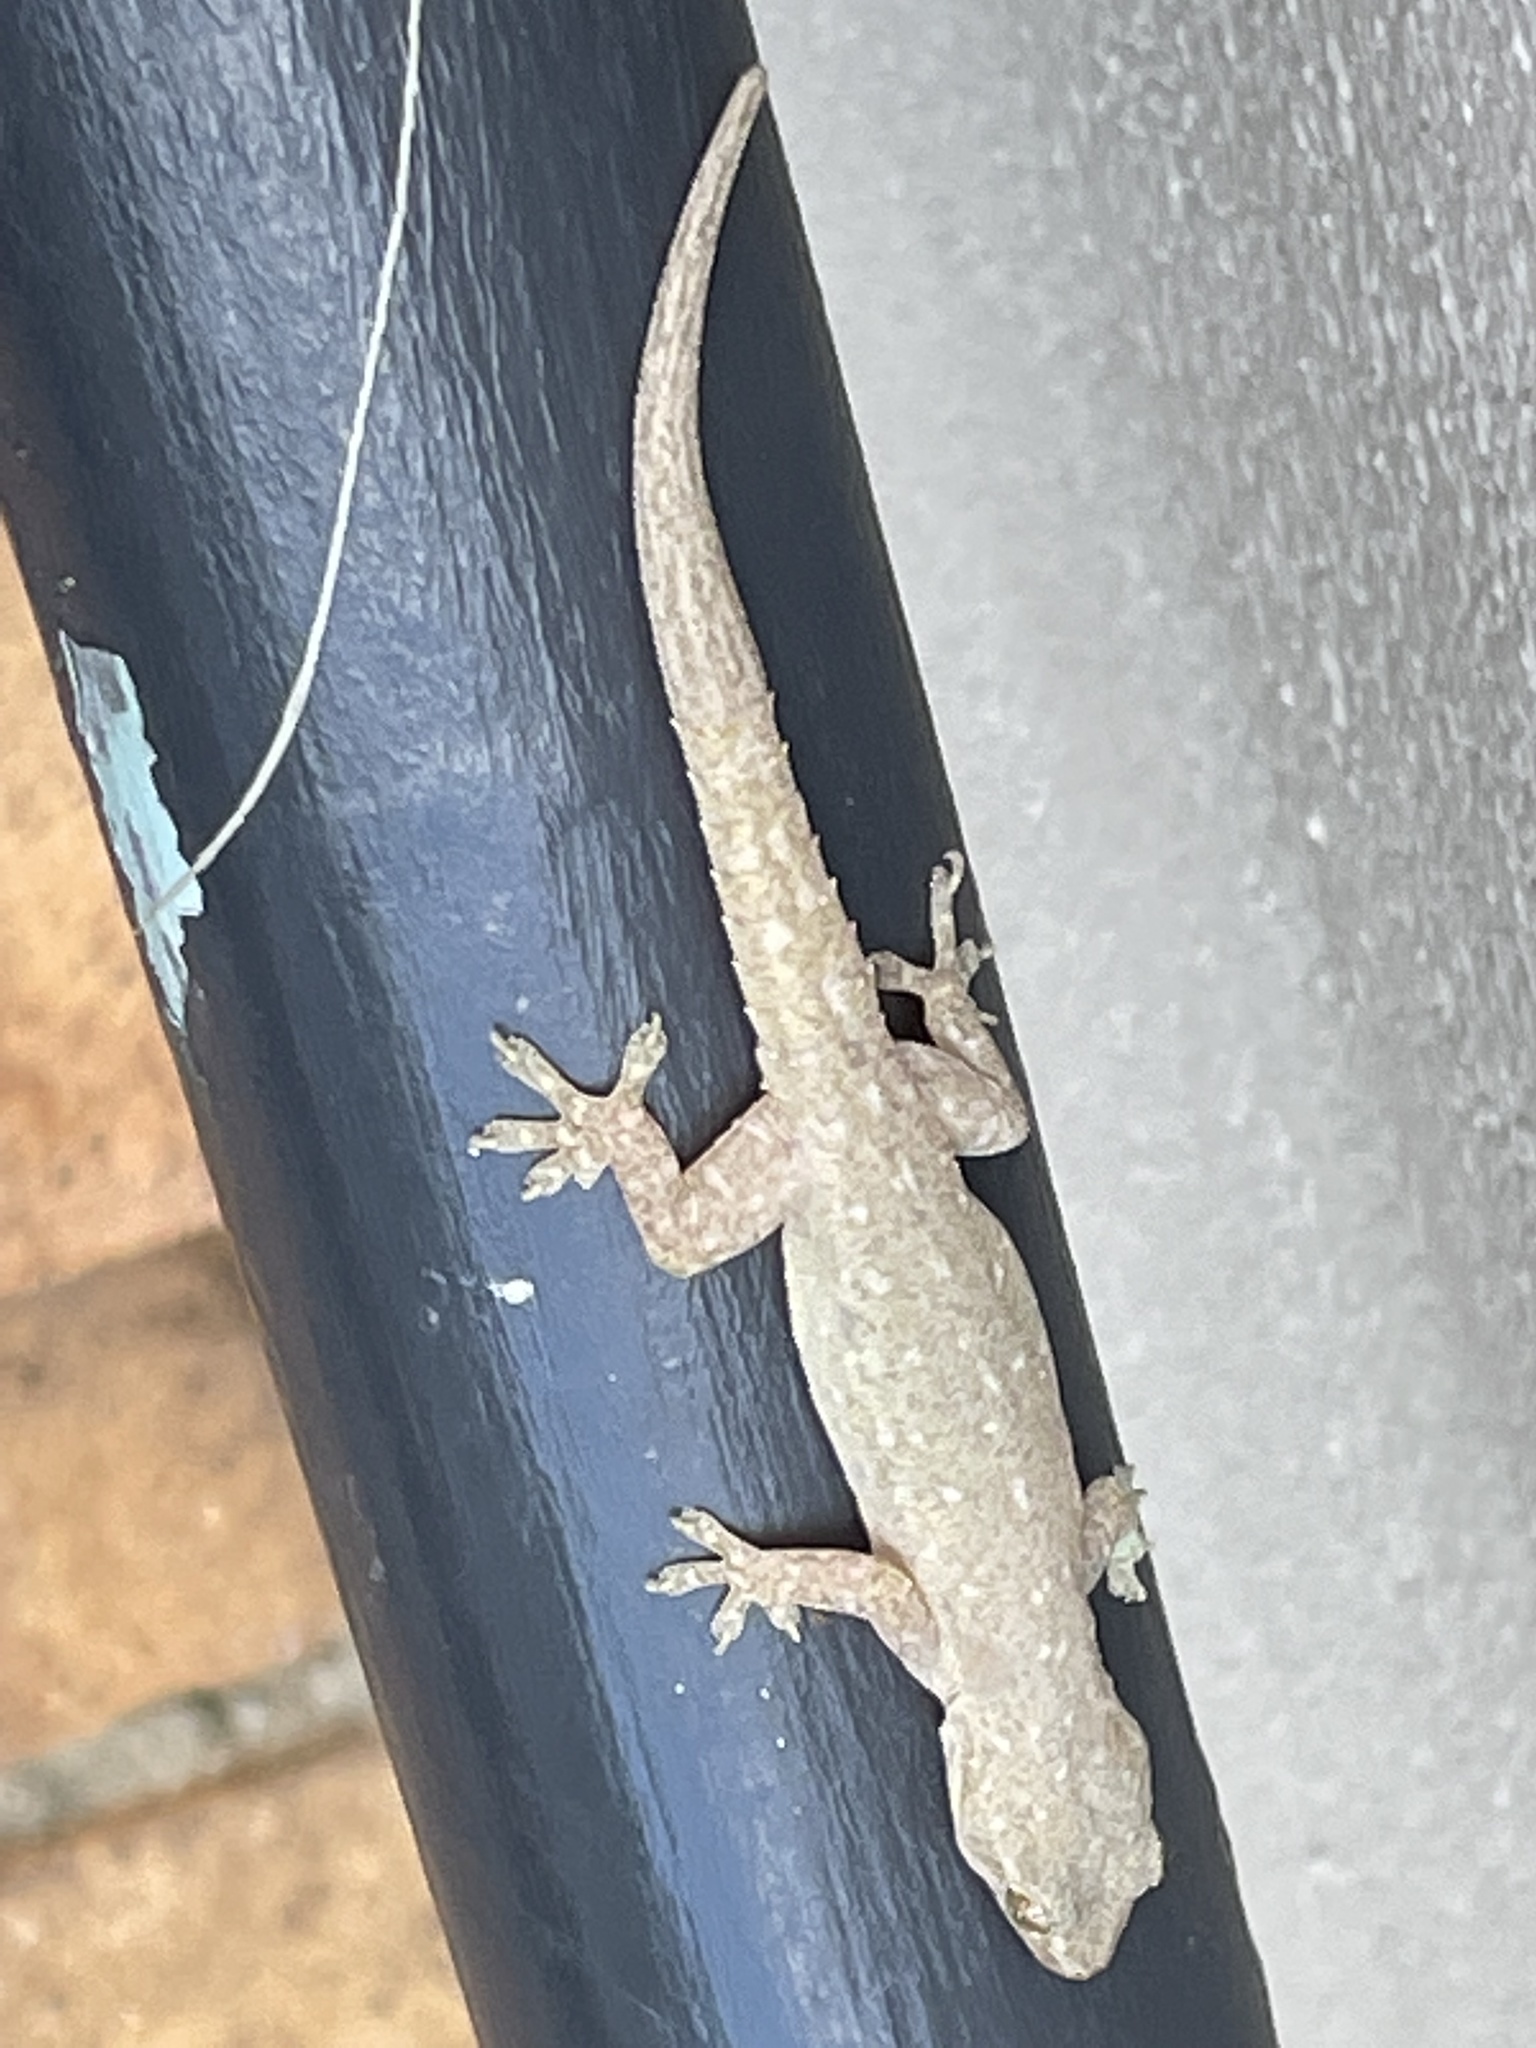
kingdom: Animalia
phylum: Chordata
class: Squamata
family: Gekkonidae
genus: Hemidactylus
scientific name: Hemidactylus frenatus
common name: Common house gecko
